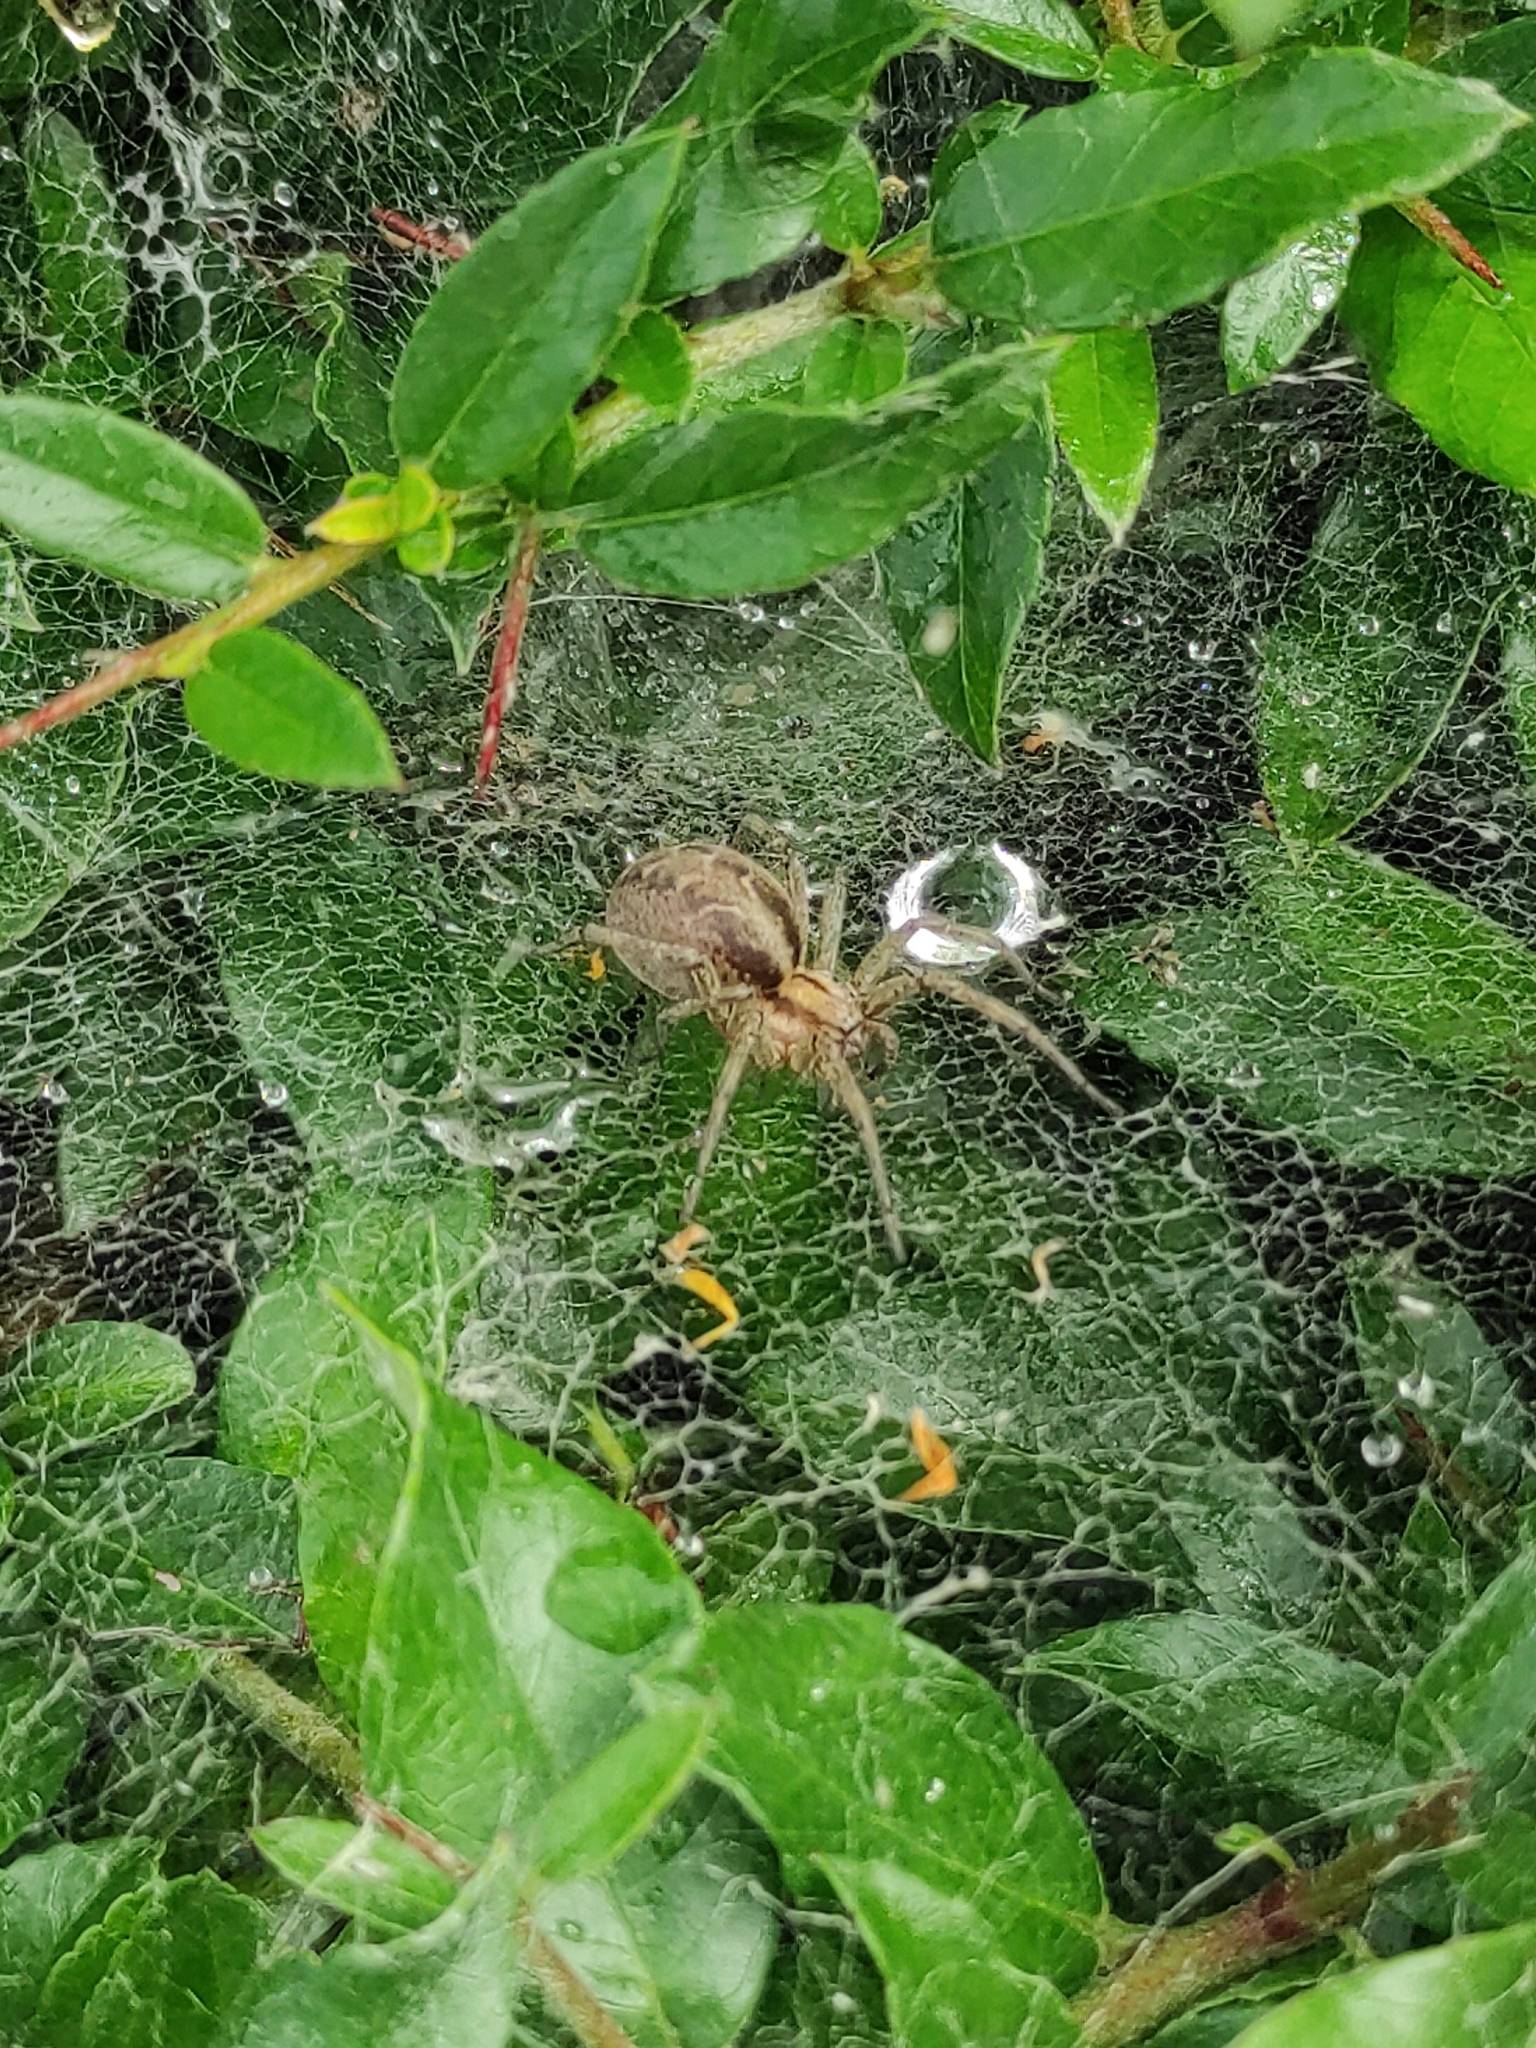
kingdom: Animalia
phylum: Arthropoda
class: Arachnida
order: Araneae
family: Agelenidae
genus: Agelena
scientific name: Agelena labyrinthica
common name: Labyrinth spider
